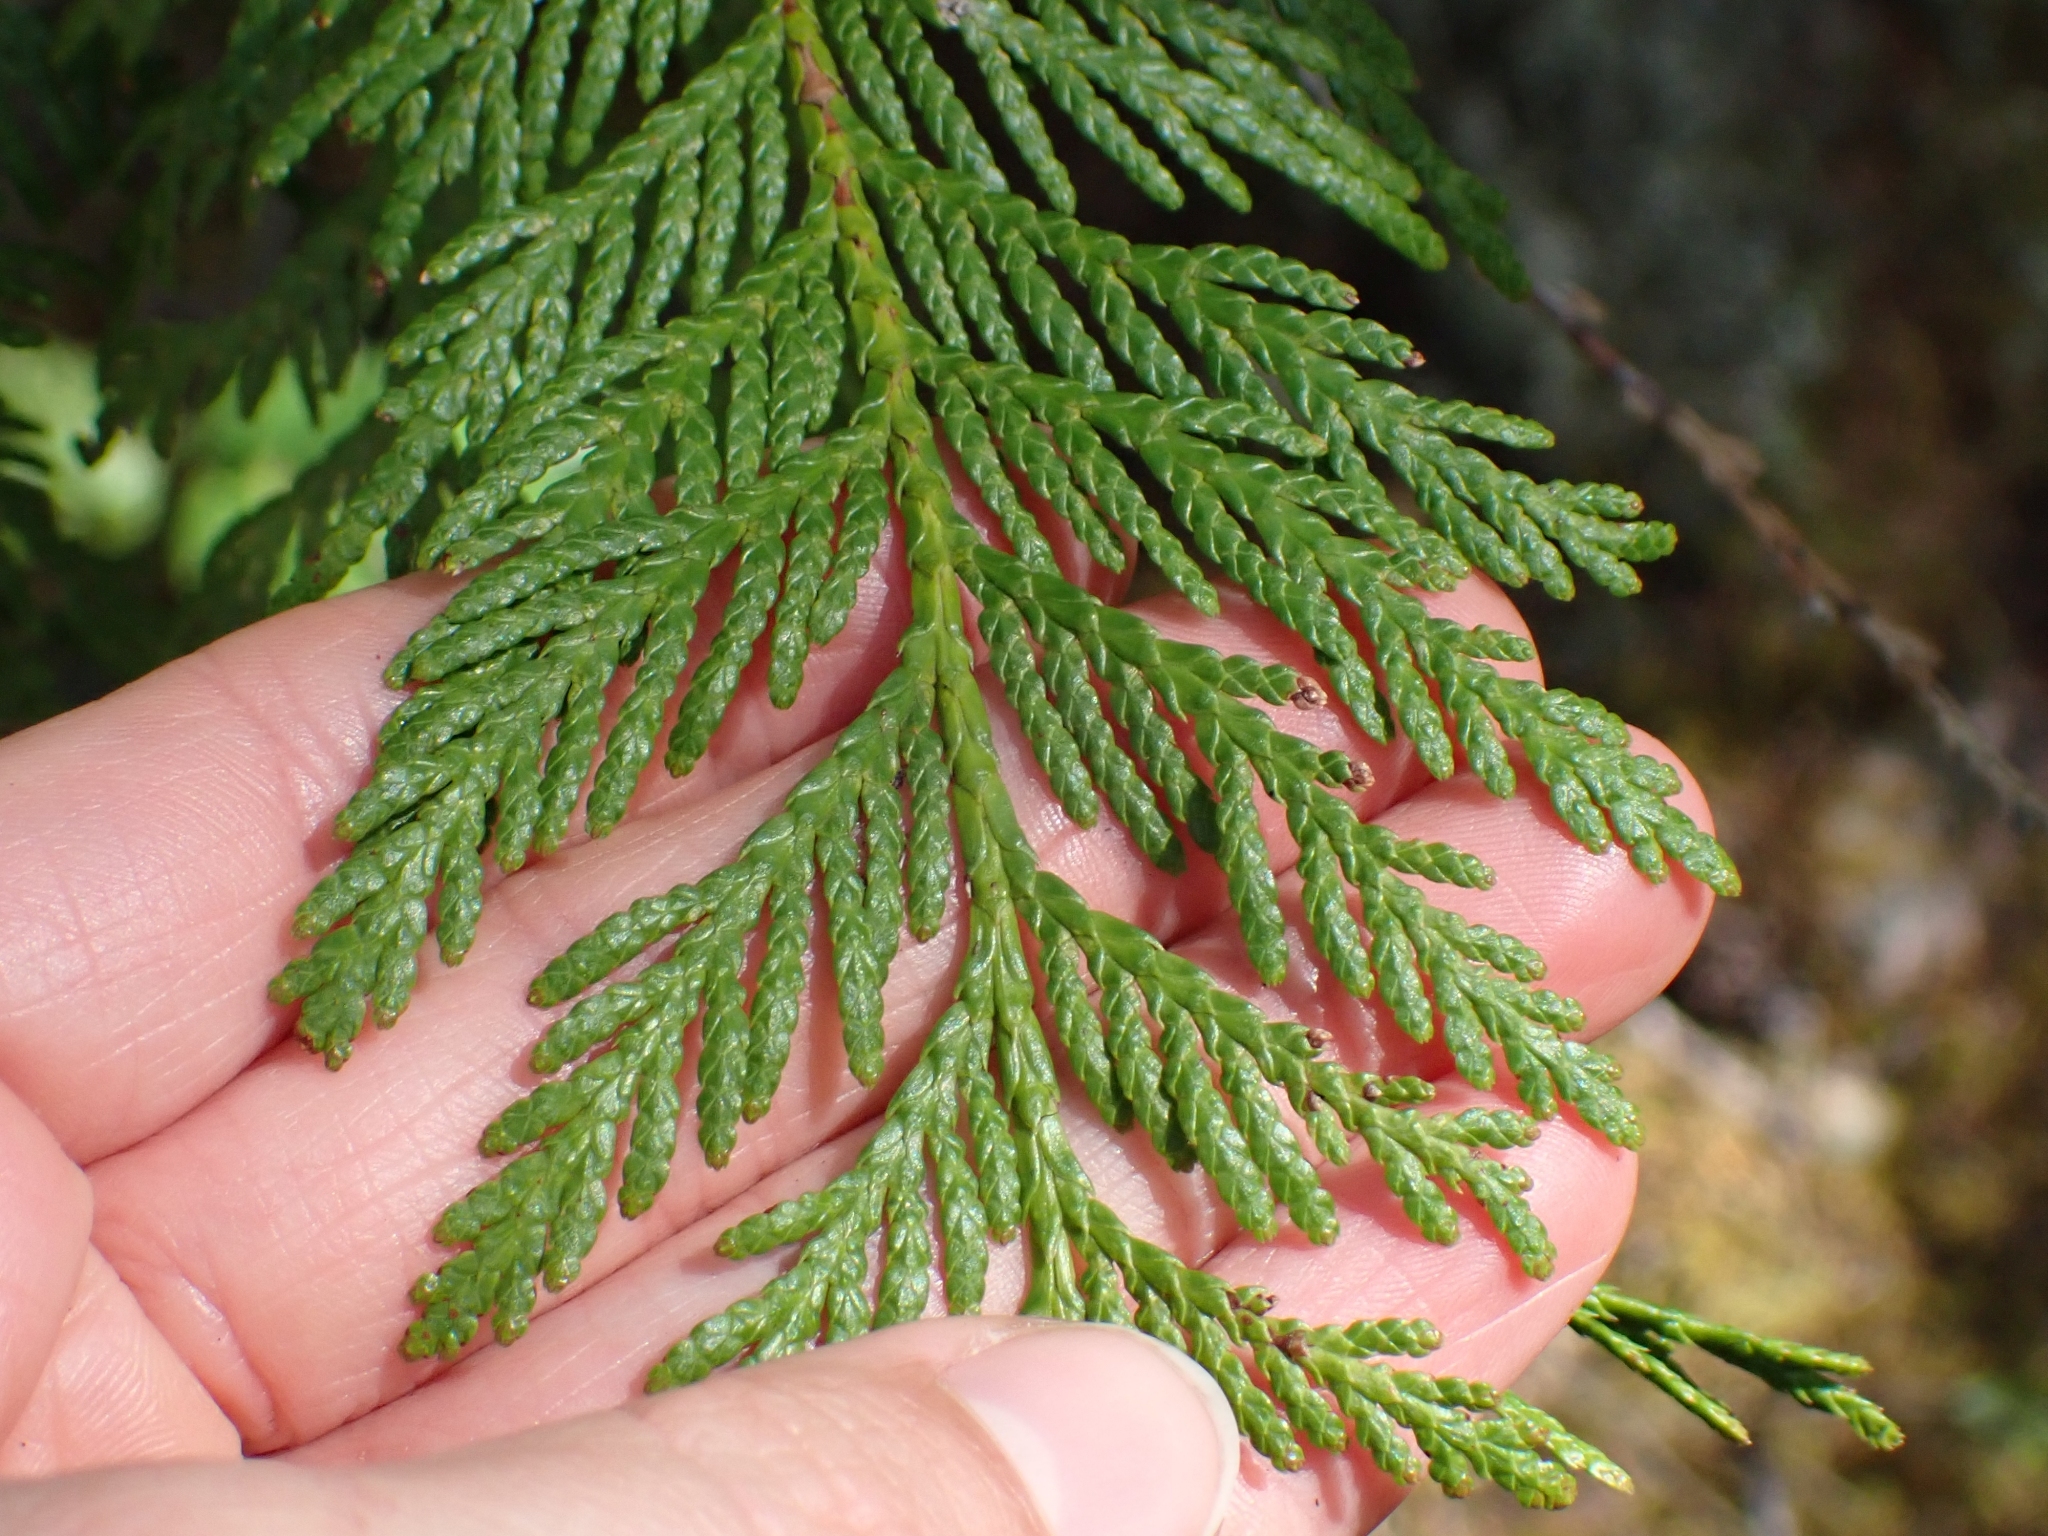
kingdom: Plantae
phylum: Tracheophyta
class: Pinopsida
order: Pinales
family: Cupressaceae
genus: Thuja
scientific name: Thuja plicata
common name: Western red-cedar
